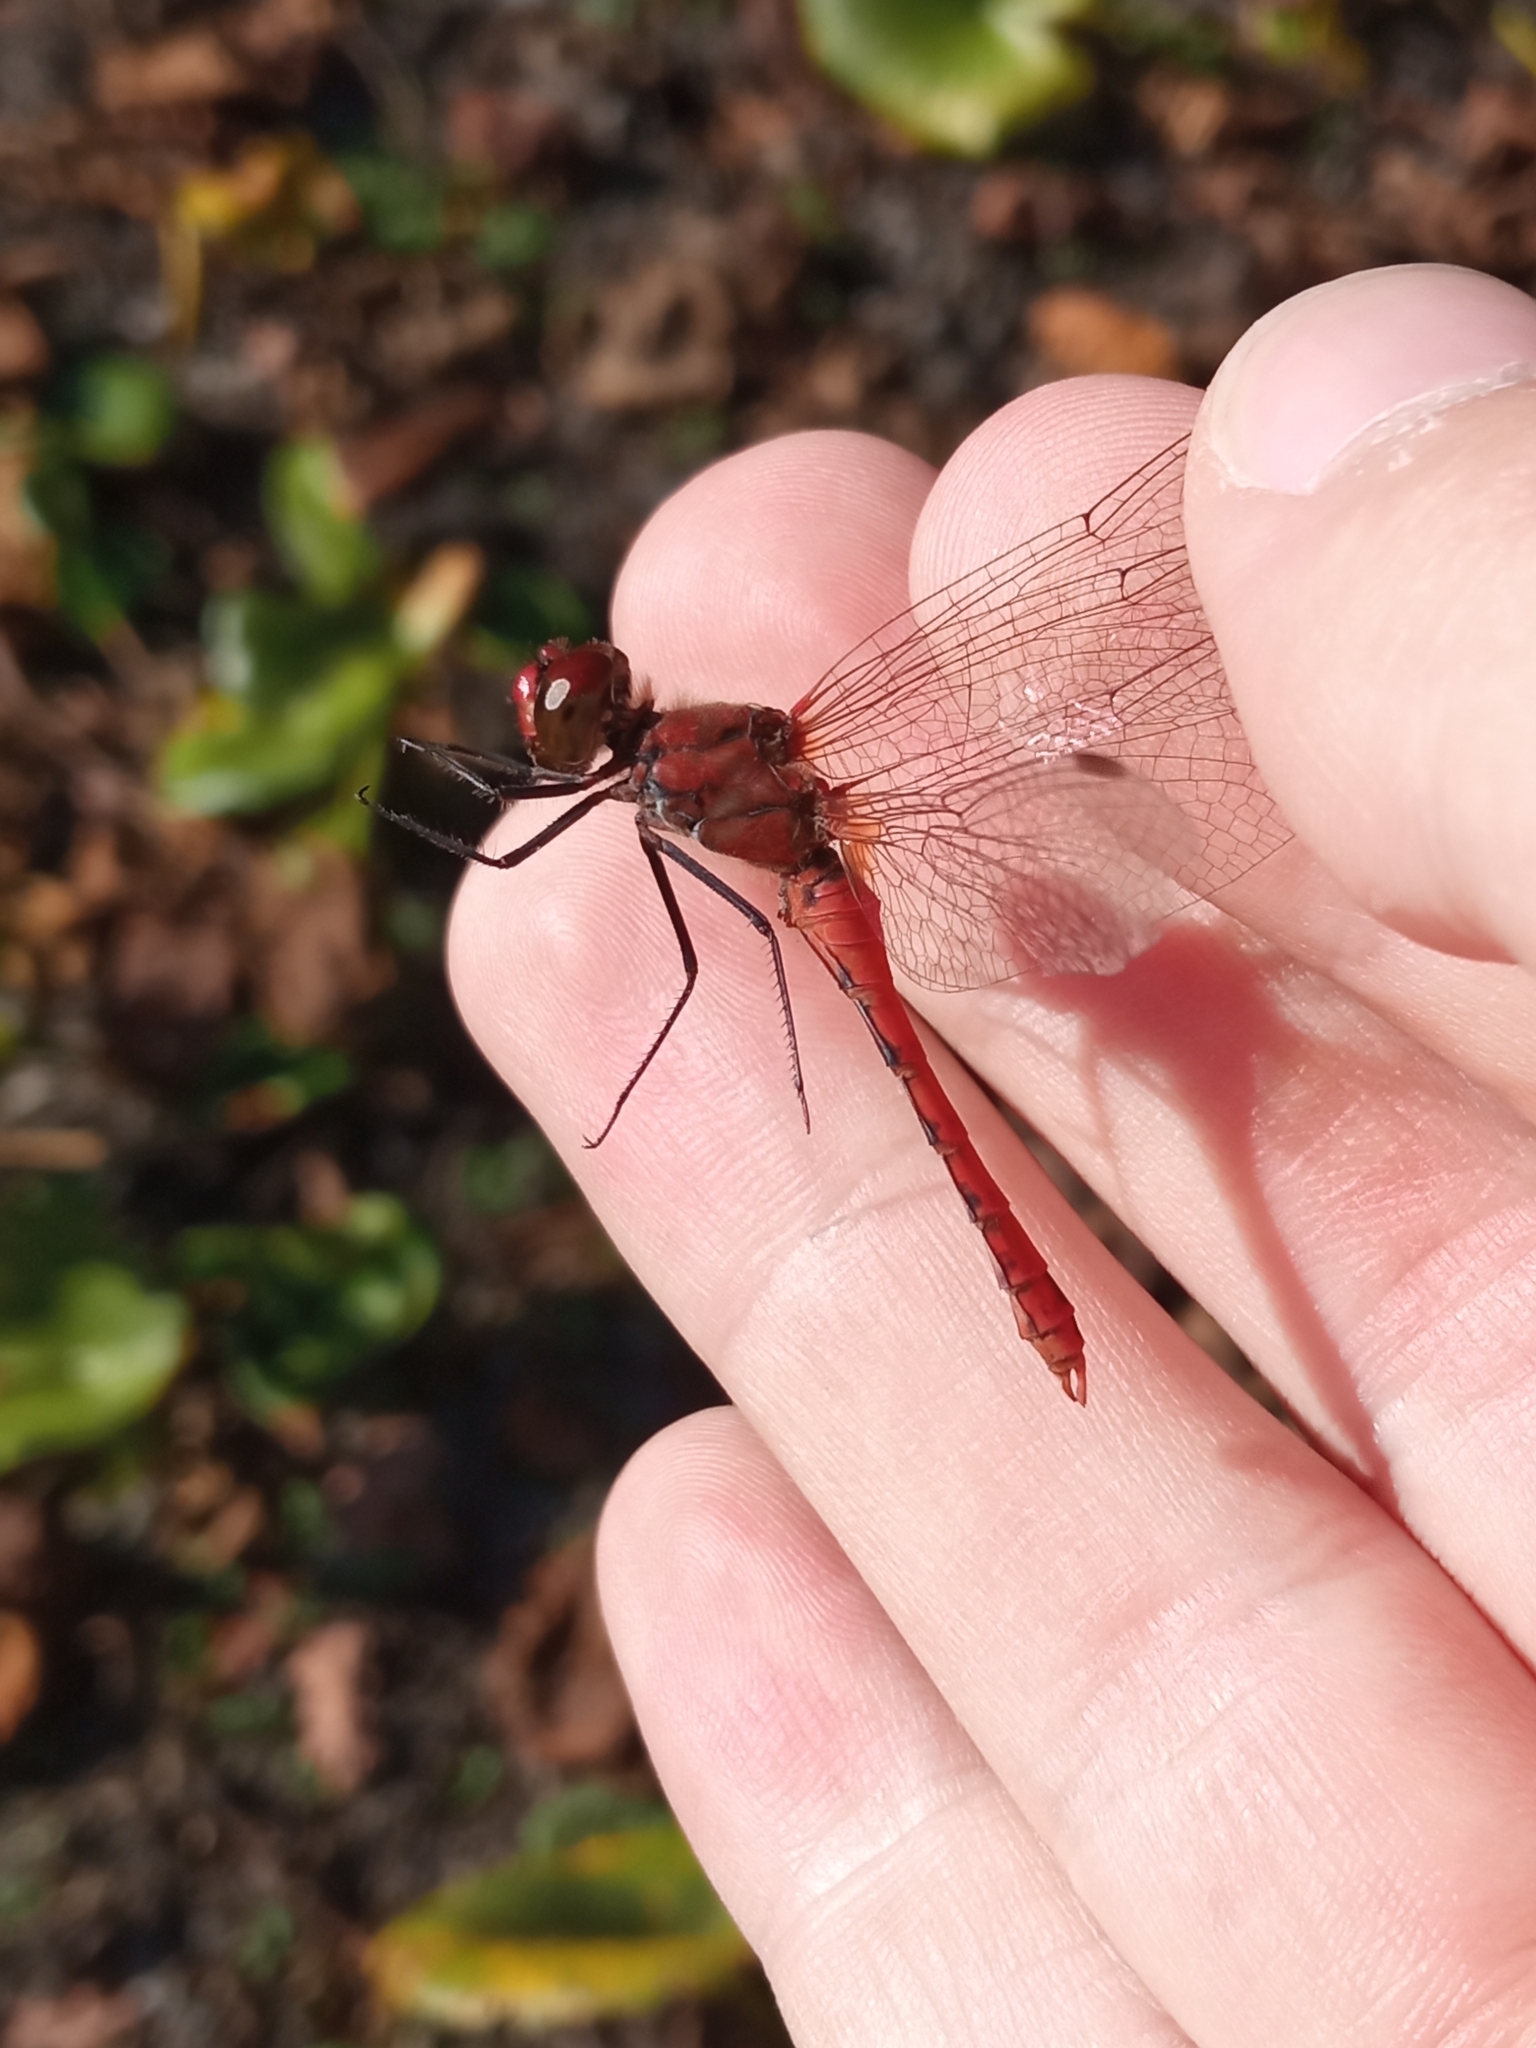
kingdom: Animalia
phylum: Arthropoda
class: Insecta
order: Odonata
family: Libellulidae
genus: Sympetrum
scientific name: Sympetrum sanguineum
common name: Ruddy darter
